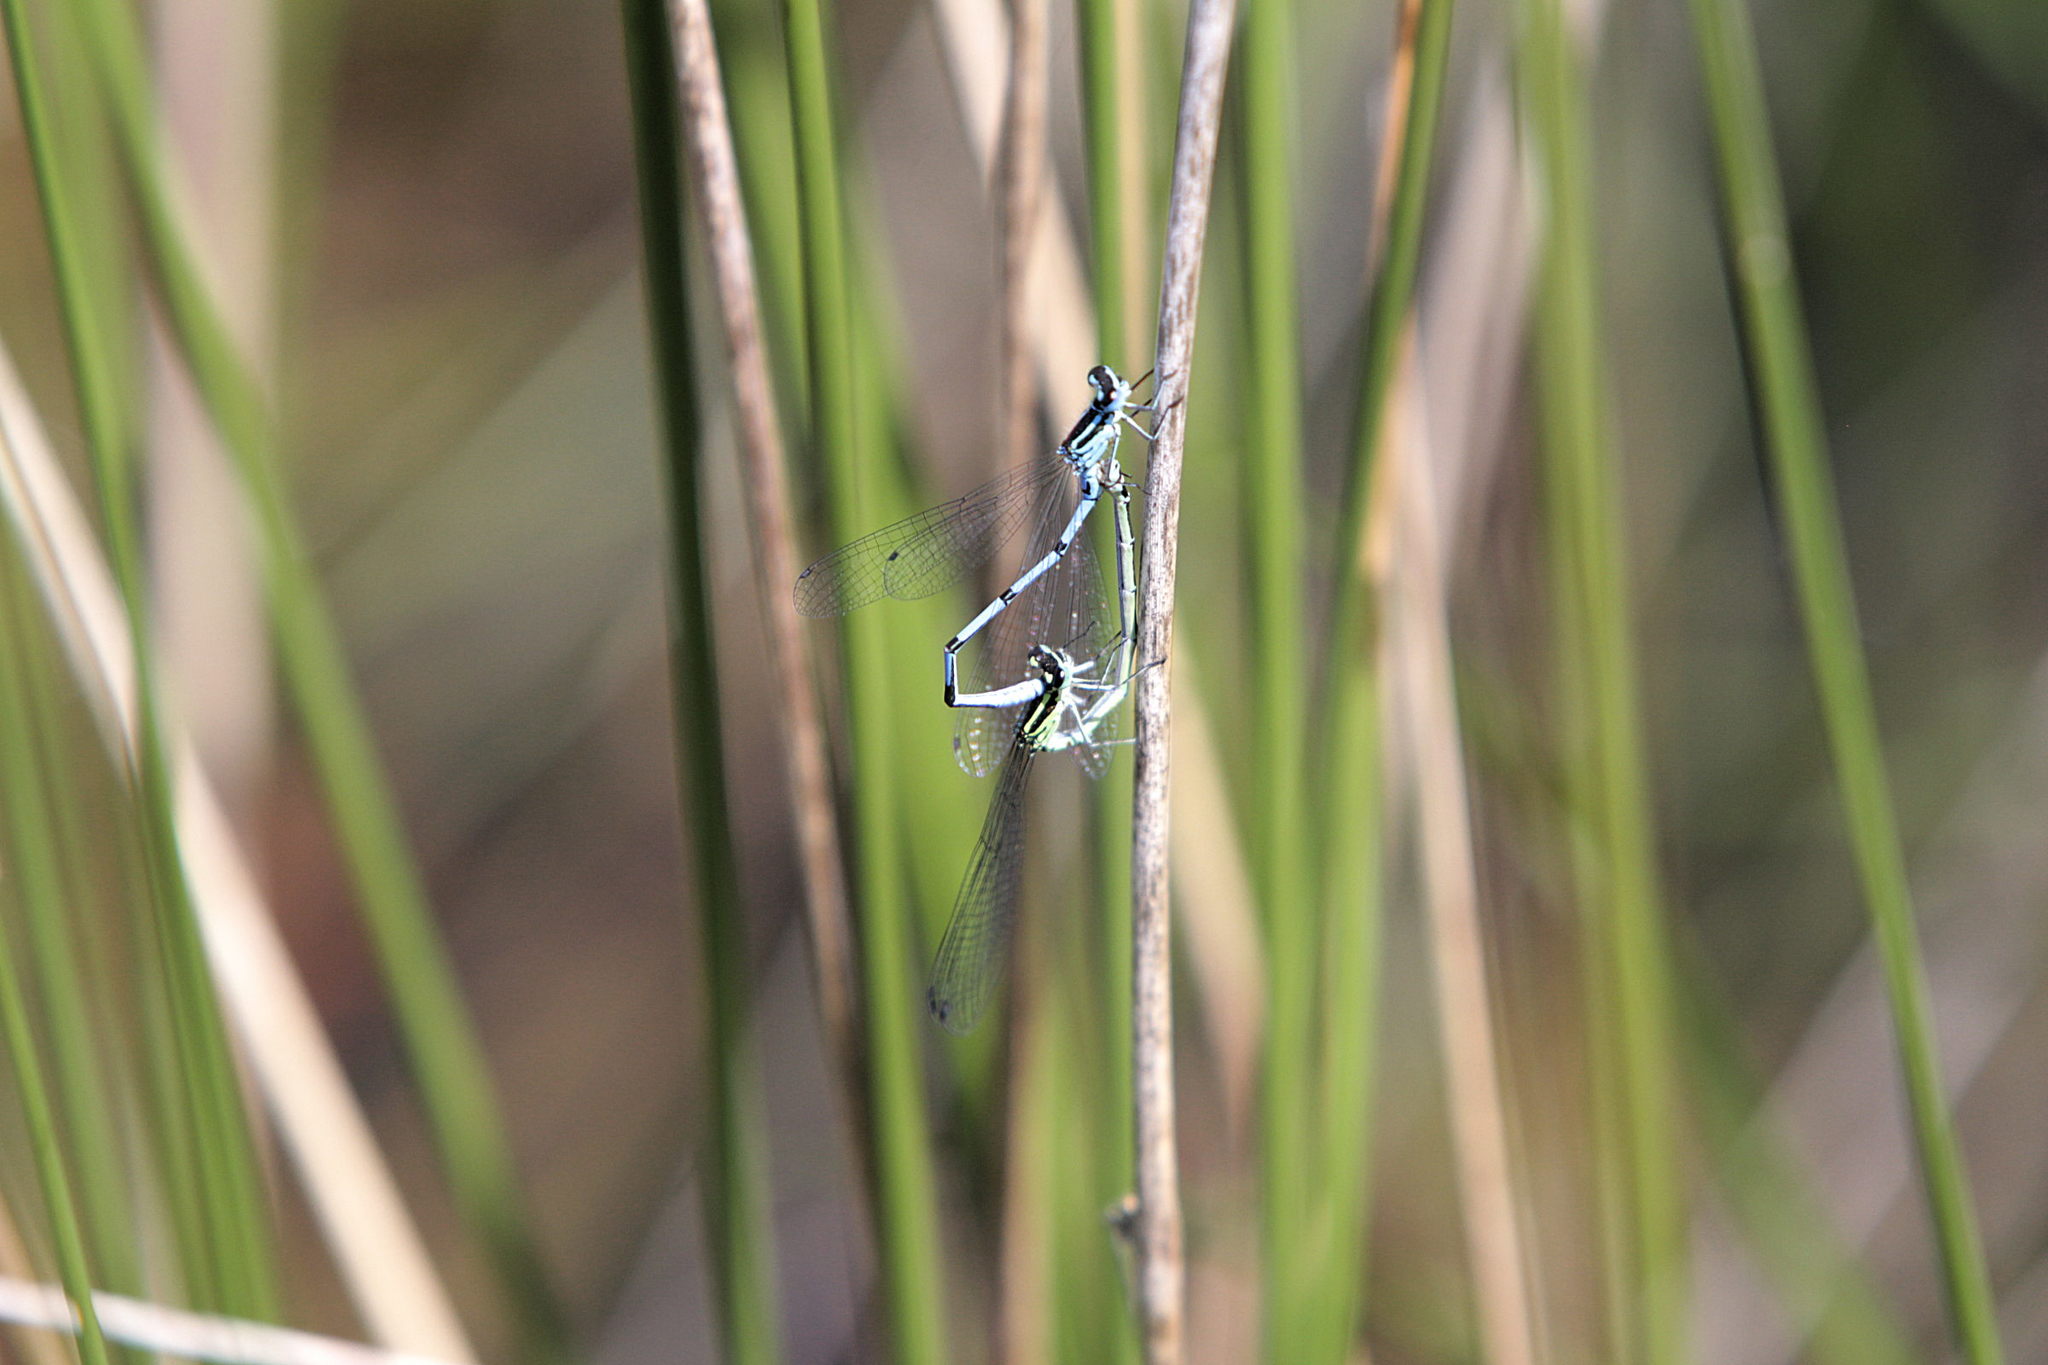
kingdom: Animalia
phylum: Arthropoda
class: Insecta
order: Odonata
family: Coenagrionidae
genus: Coenagrion
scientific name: Coenagrion puella
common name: Azure damselfly
